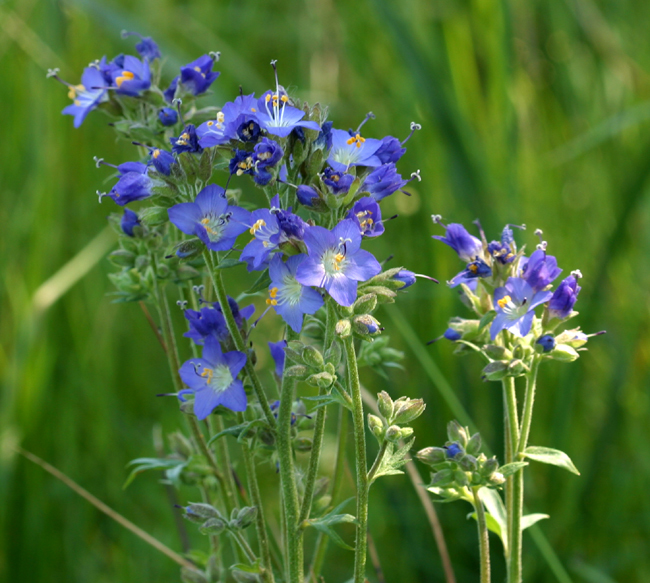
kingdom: Plantae
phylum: Tracheophyta
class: Magnoliopsida
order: Ericales
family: Polemoniaceae
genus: Polemonium
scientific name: Polemonium occidentale
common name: Western jacob's-ladder
